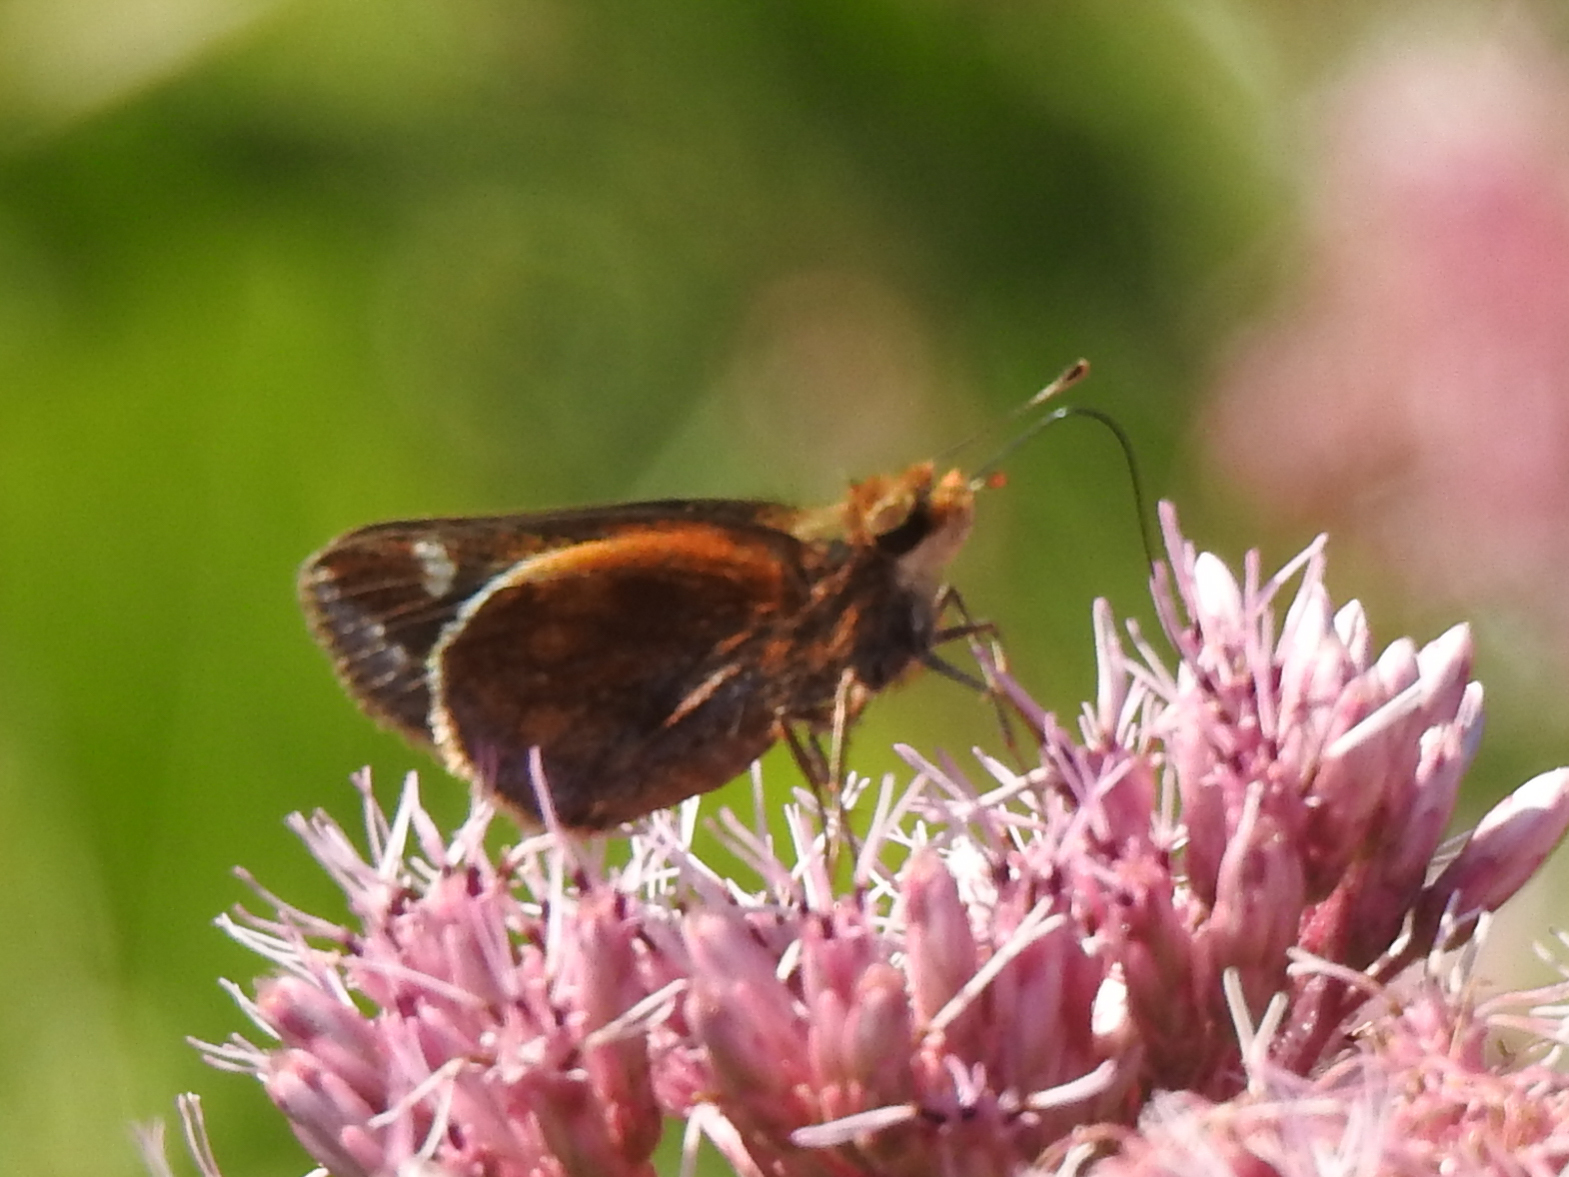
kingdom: Animalia
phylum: Arthropoda
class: Insecta
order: Lepidoptera
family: Hesperiidae
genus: Lon
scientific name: Lon zabulon
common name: Zabulon skipper
